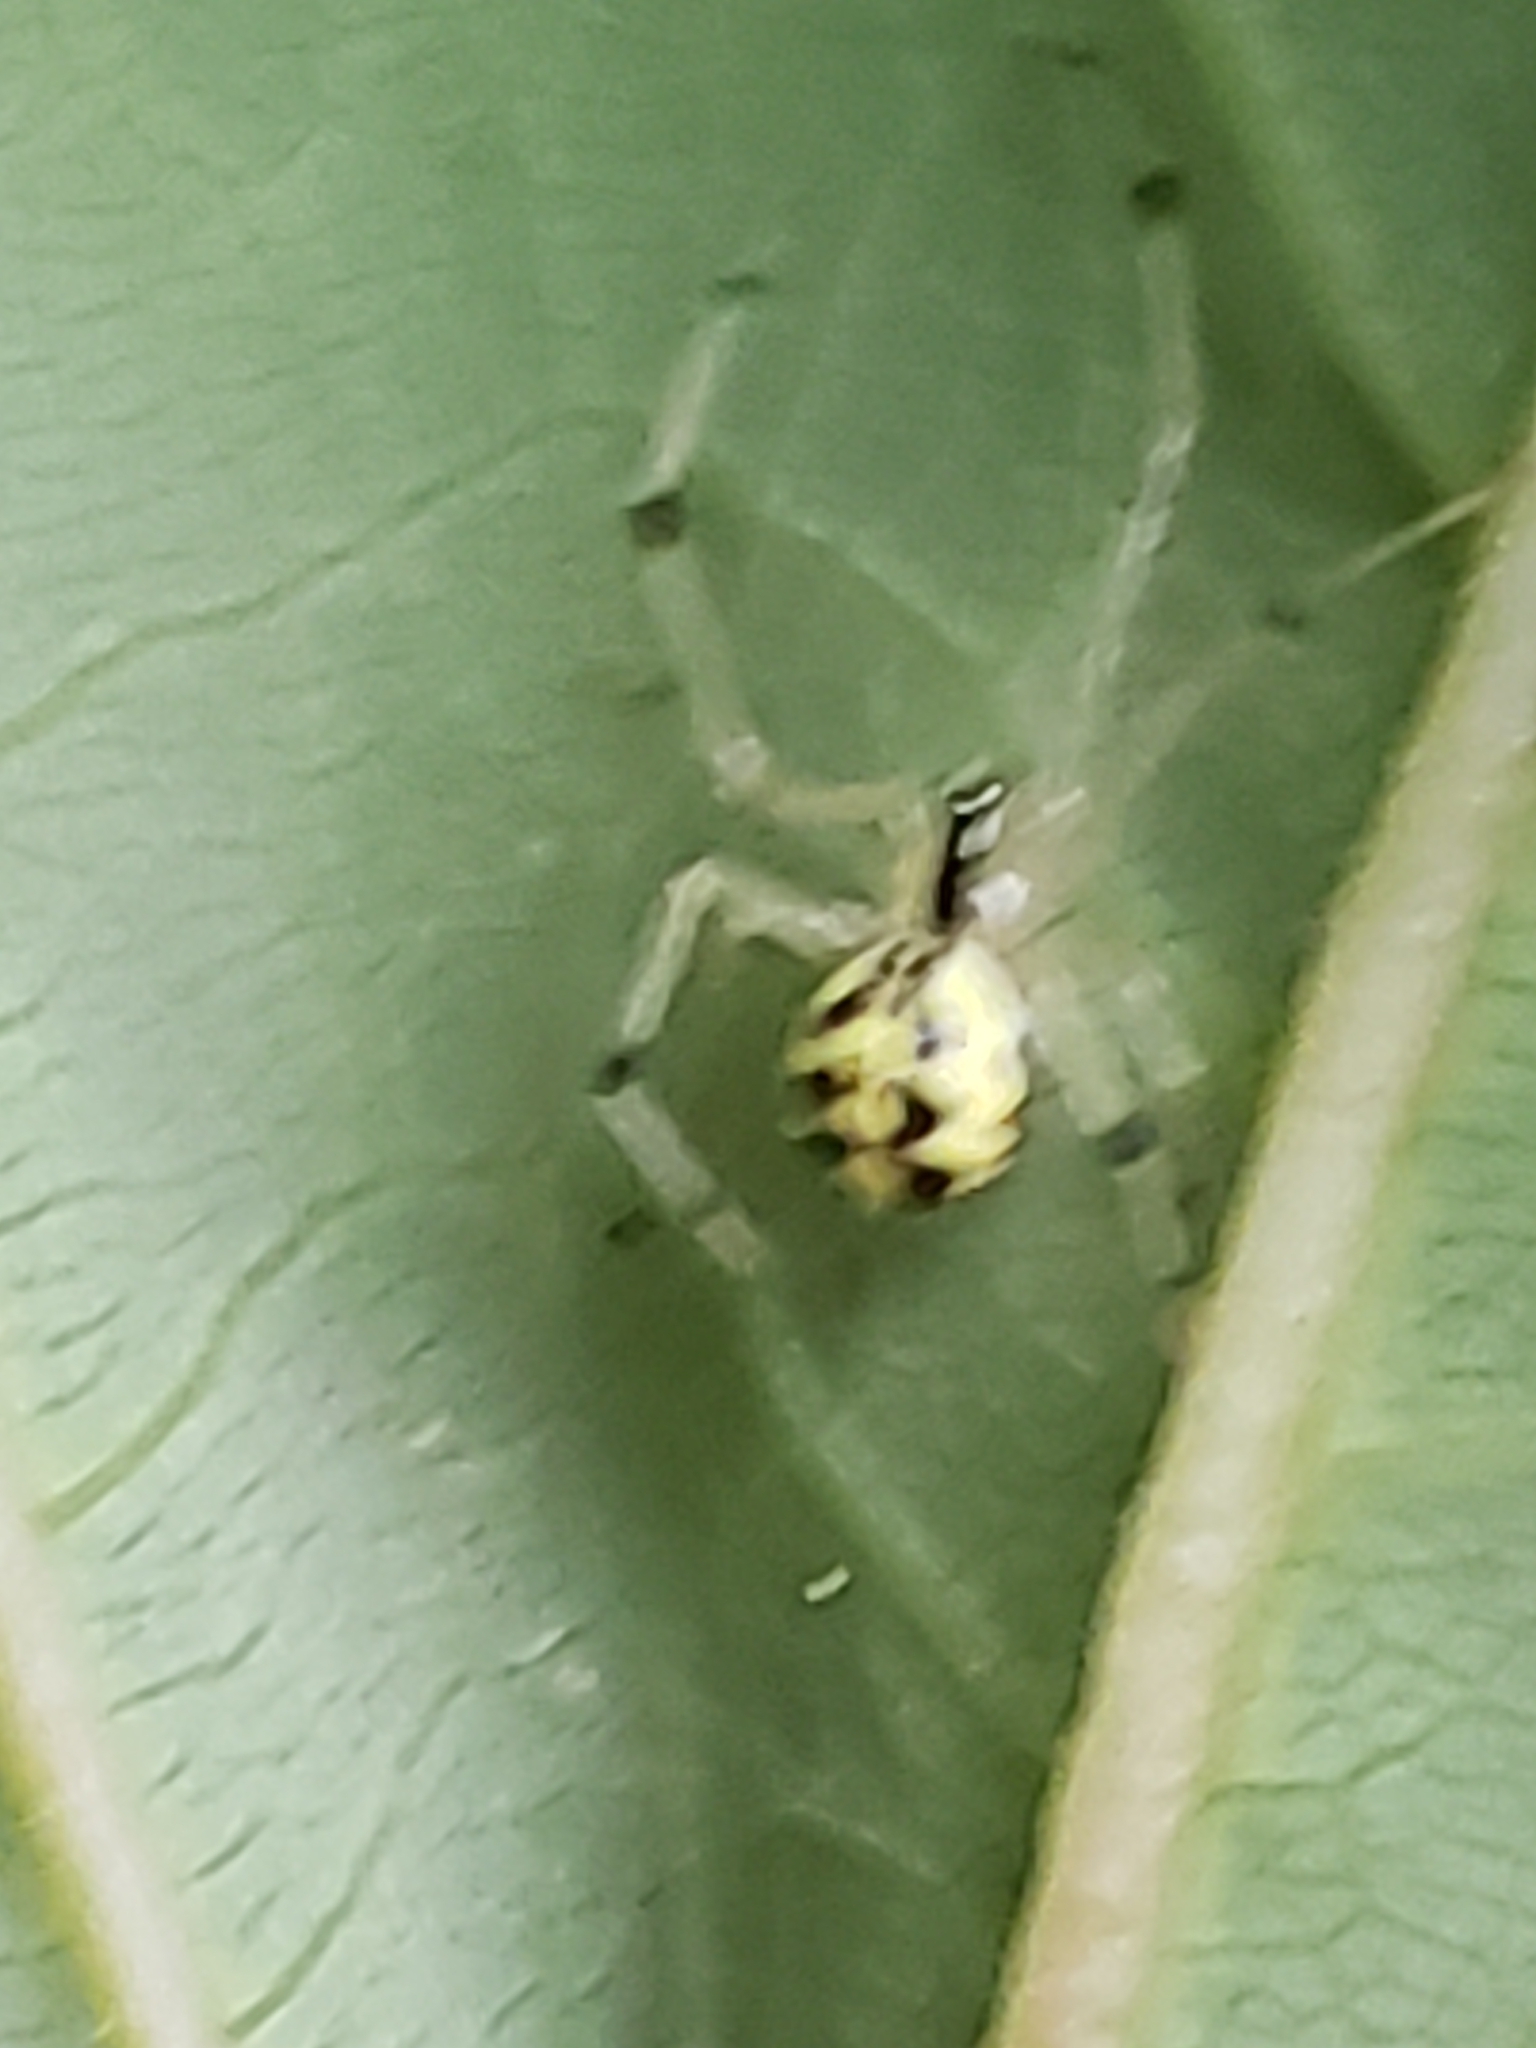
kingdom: Animalia
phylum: Arthropoda
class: Arachnida
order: Araneae
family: Theridiidae
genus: Phylloneta
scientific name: Phylloneta pictipes
